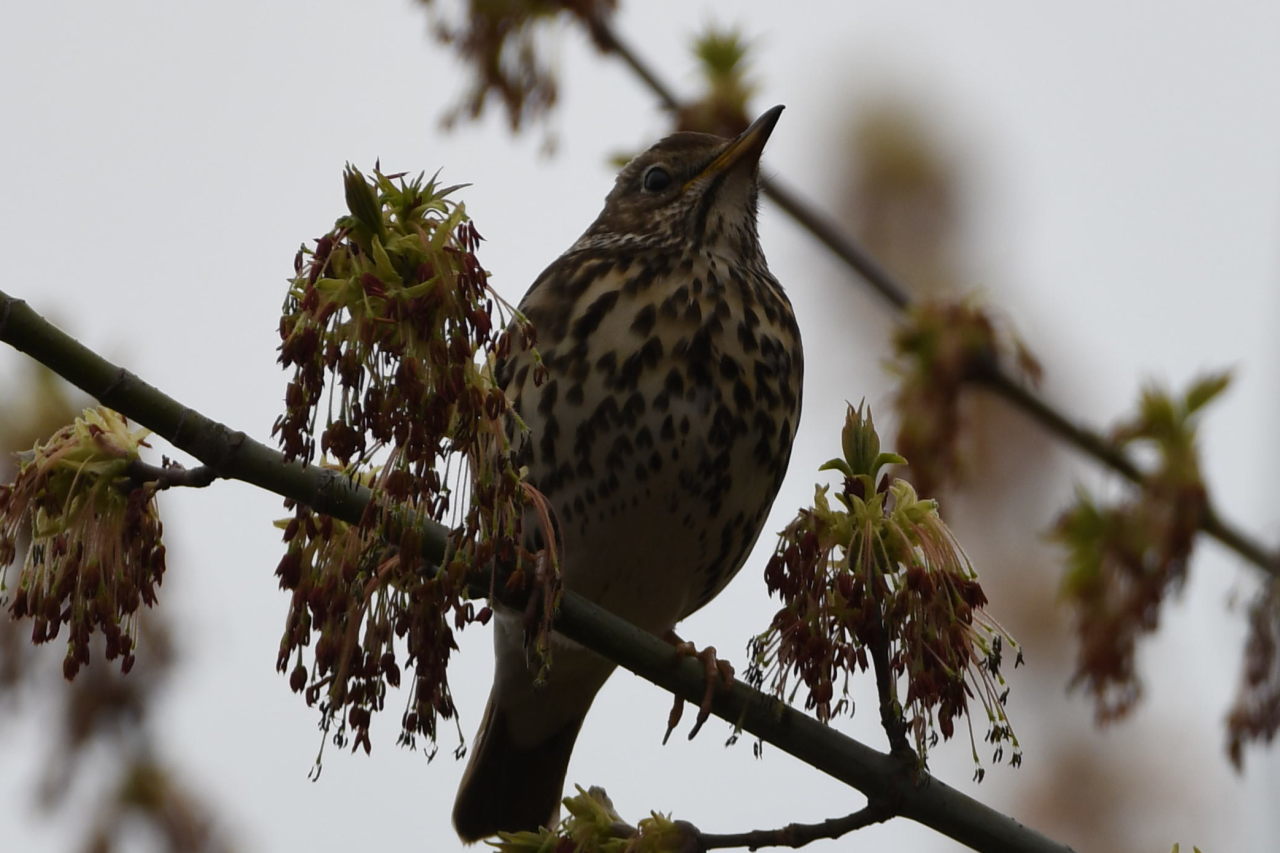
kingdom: Animalia
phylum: Chordata
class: Aves
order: Passeriformes
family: Turdidae
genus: Turdus
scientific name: Turdus philomelos
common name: Song thrush
